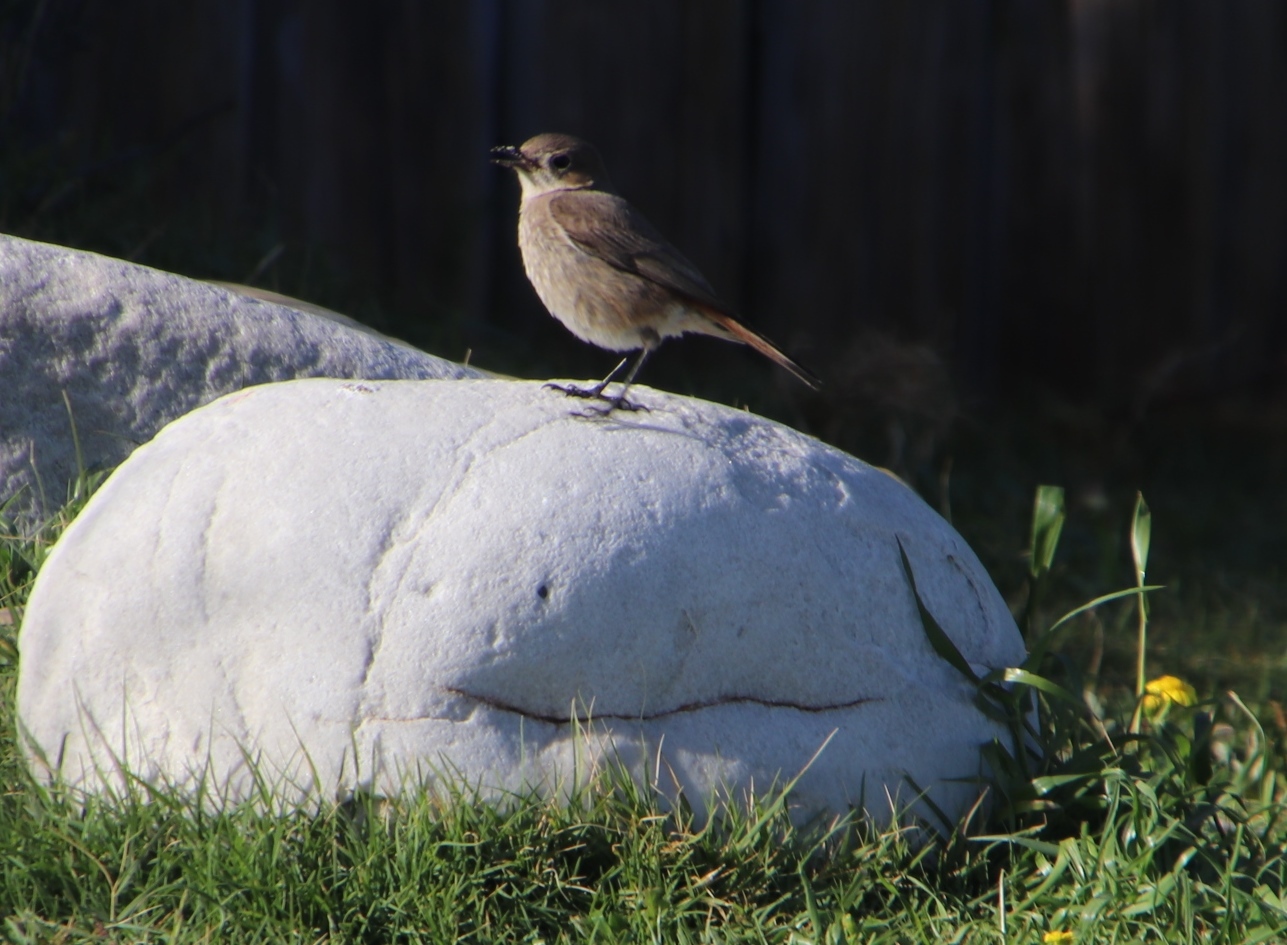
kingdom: Animalia
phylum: Chordata
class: Aves
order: Passeriformes
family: Muscicapidae
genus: Oenanthe
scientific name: Oenanthe familiaris
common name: Familiar chat
